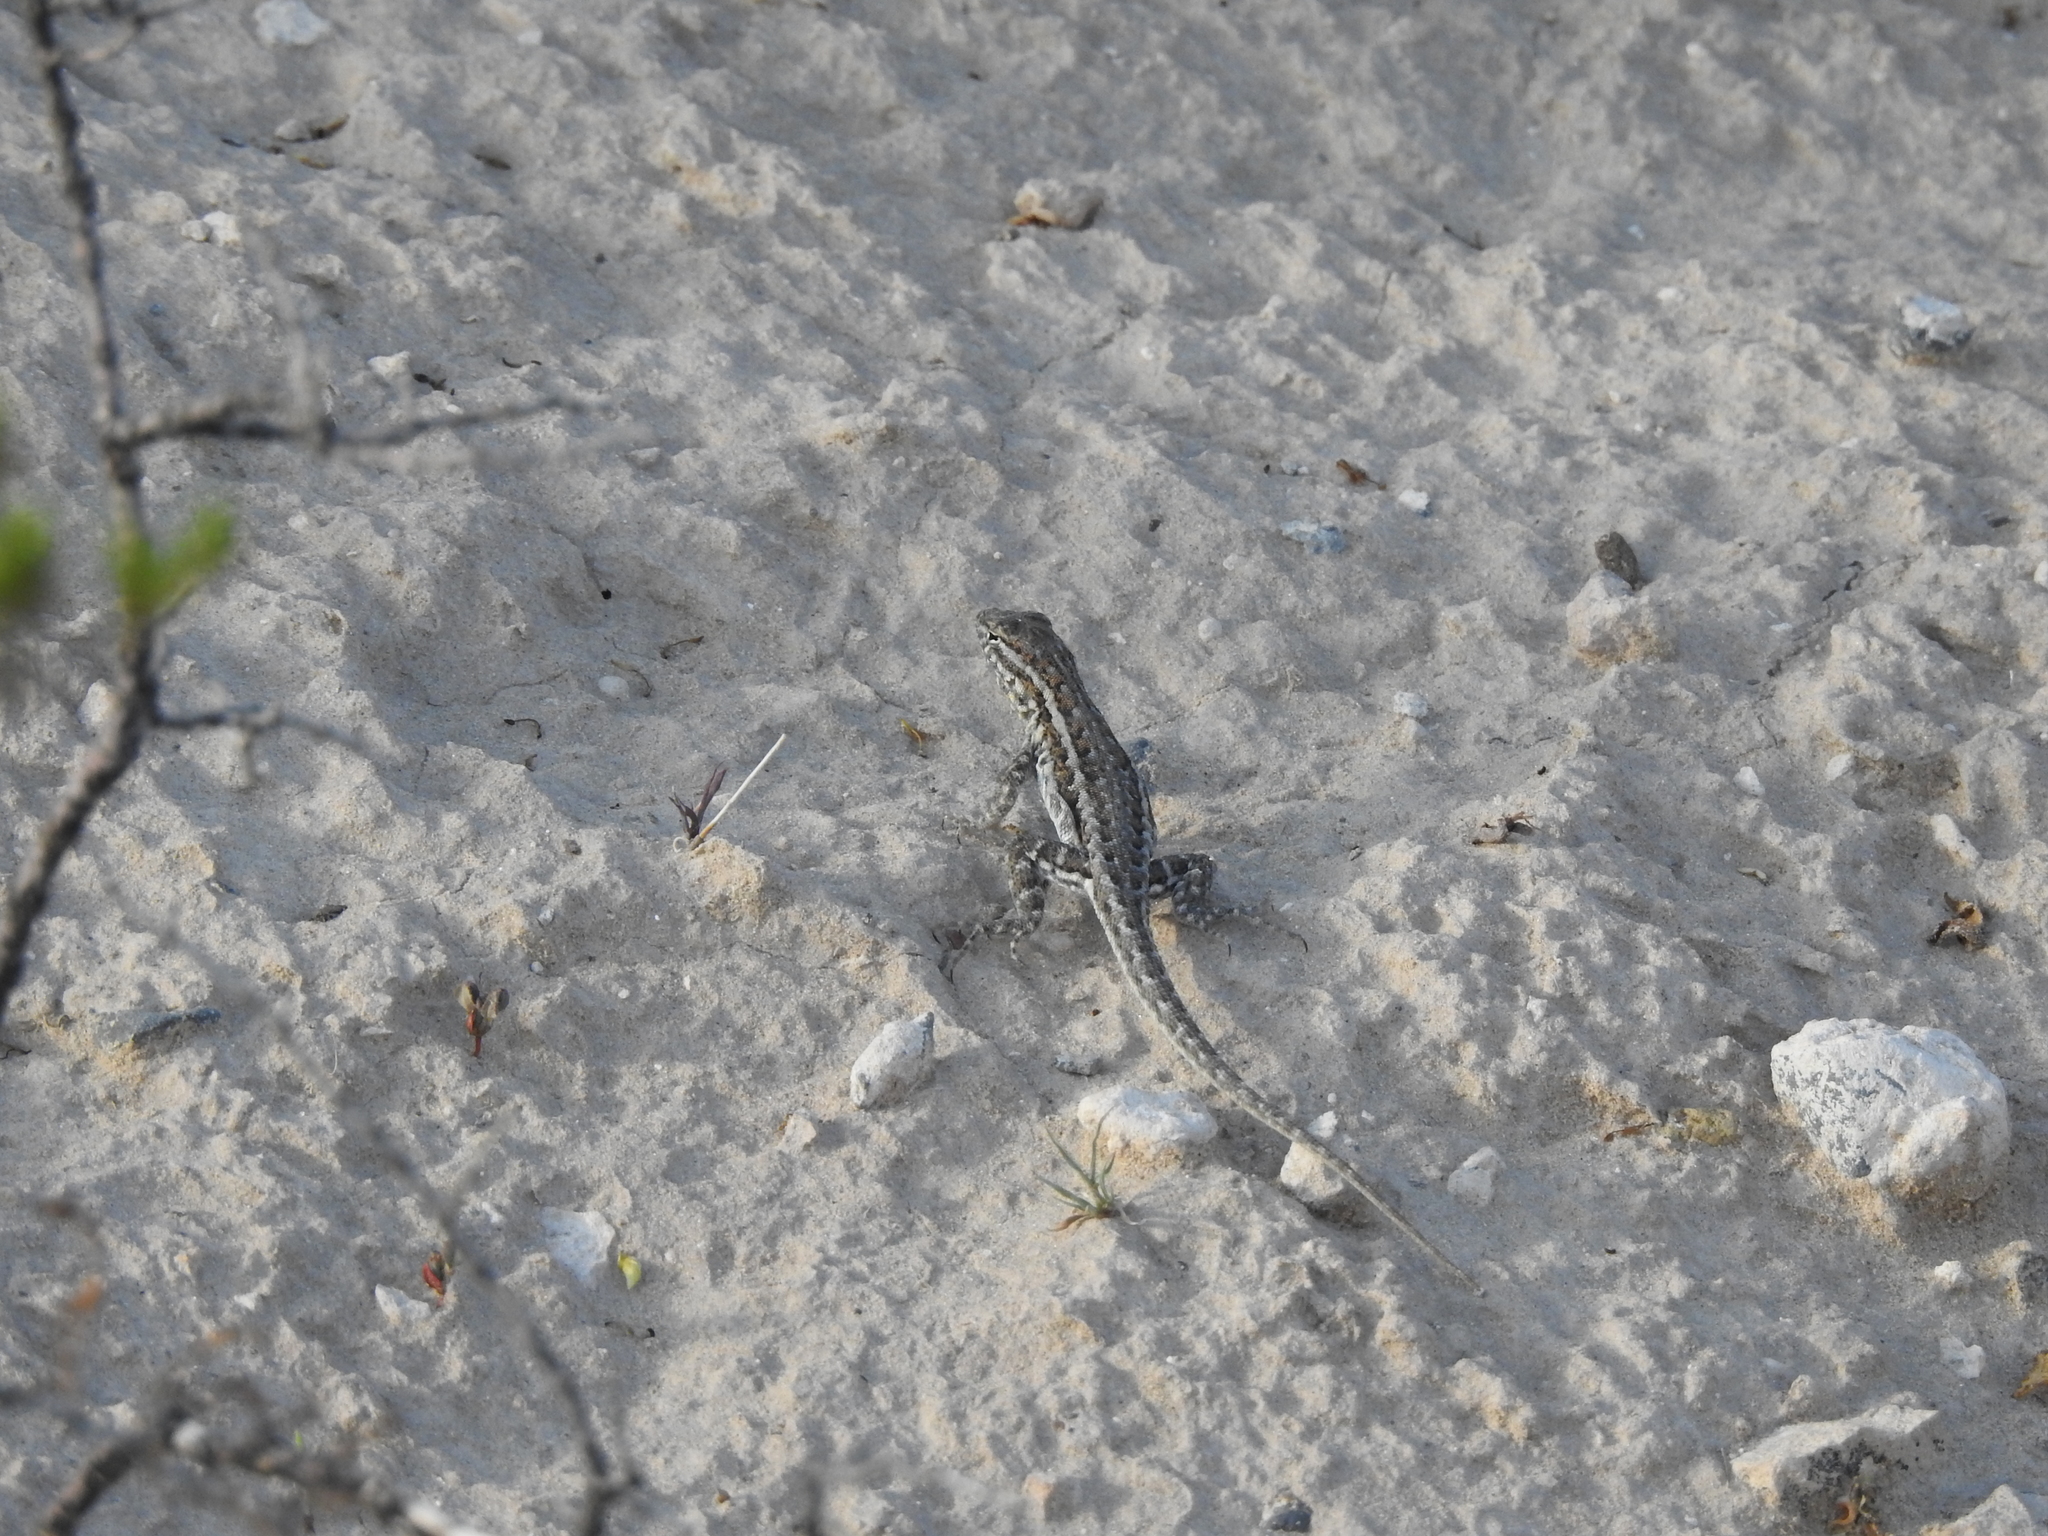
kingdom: Animalia
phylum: Chordata
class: Squamata
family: Phrynosomatidae
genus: Uta
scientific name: Uta stansburiana
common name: Side-blotched lizard
